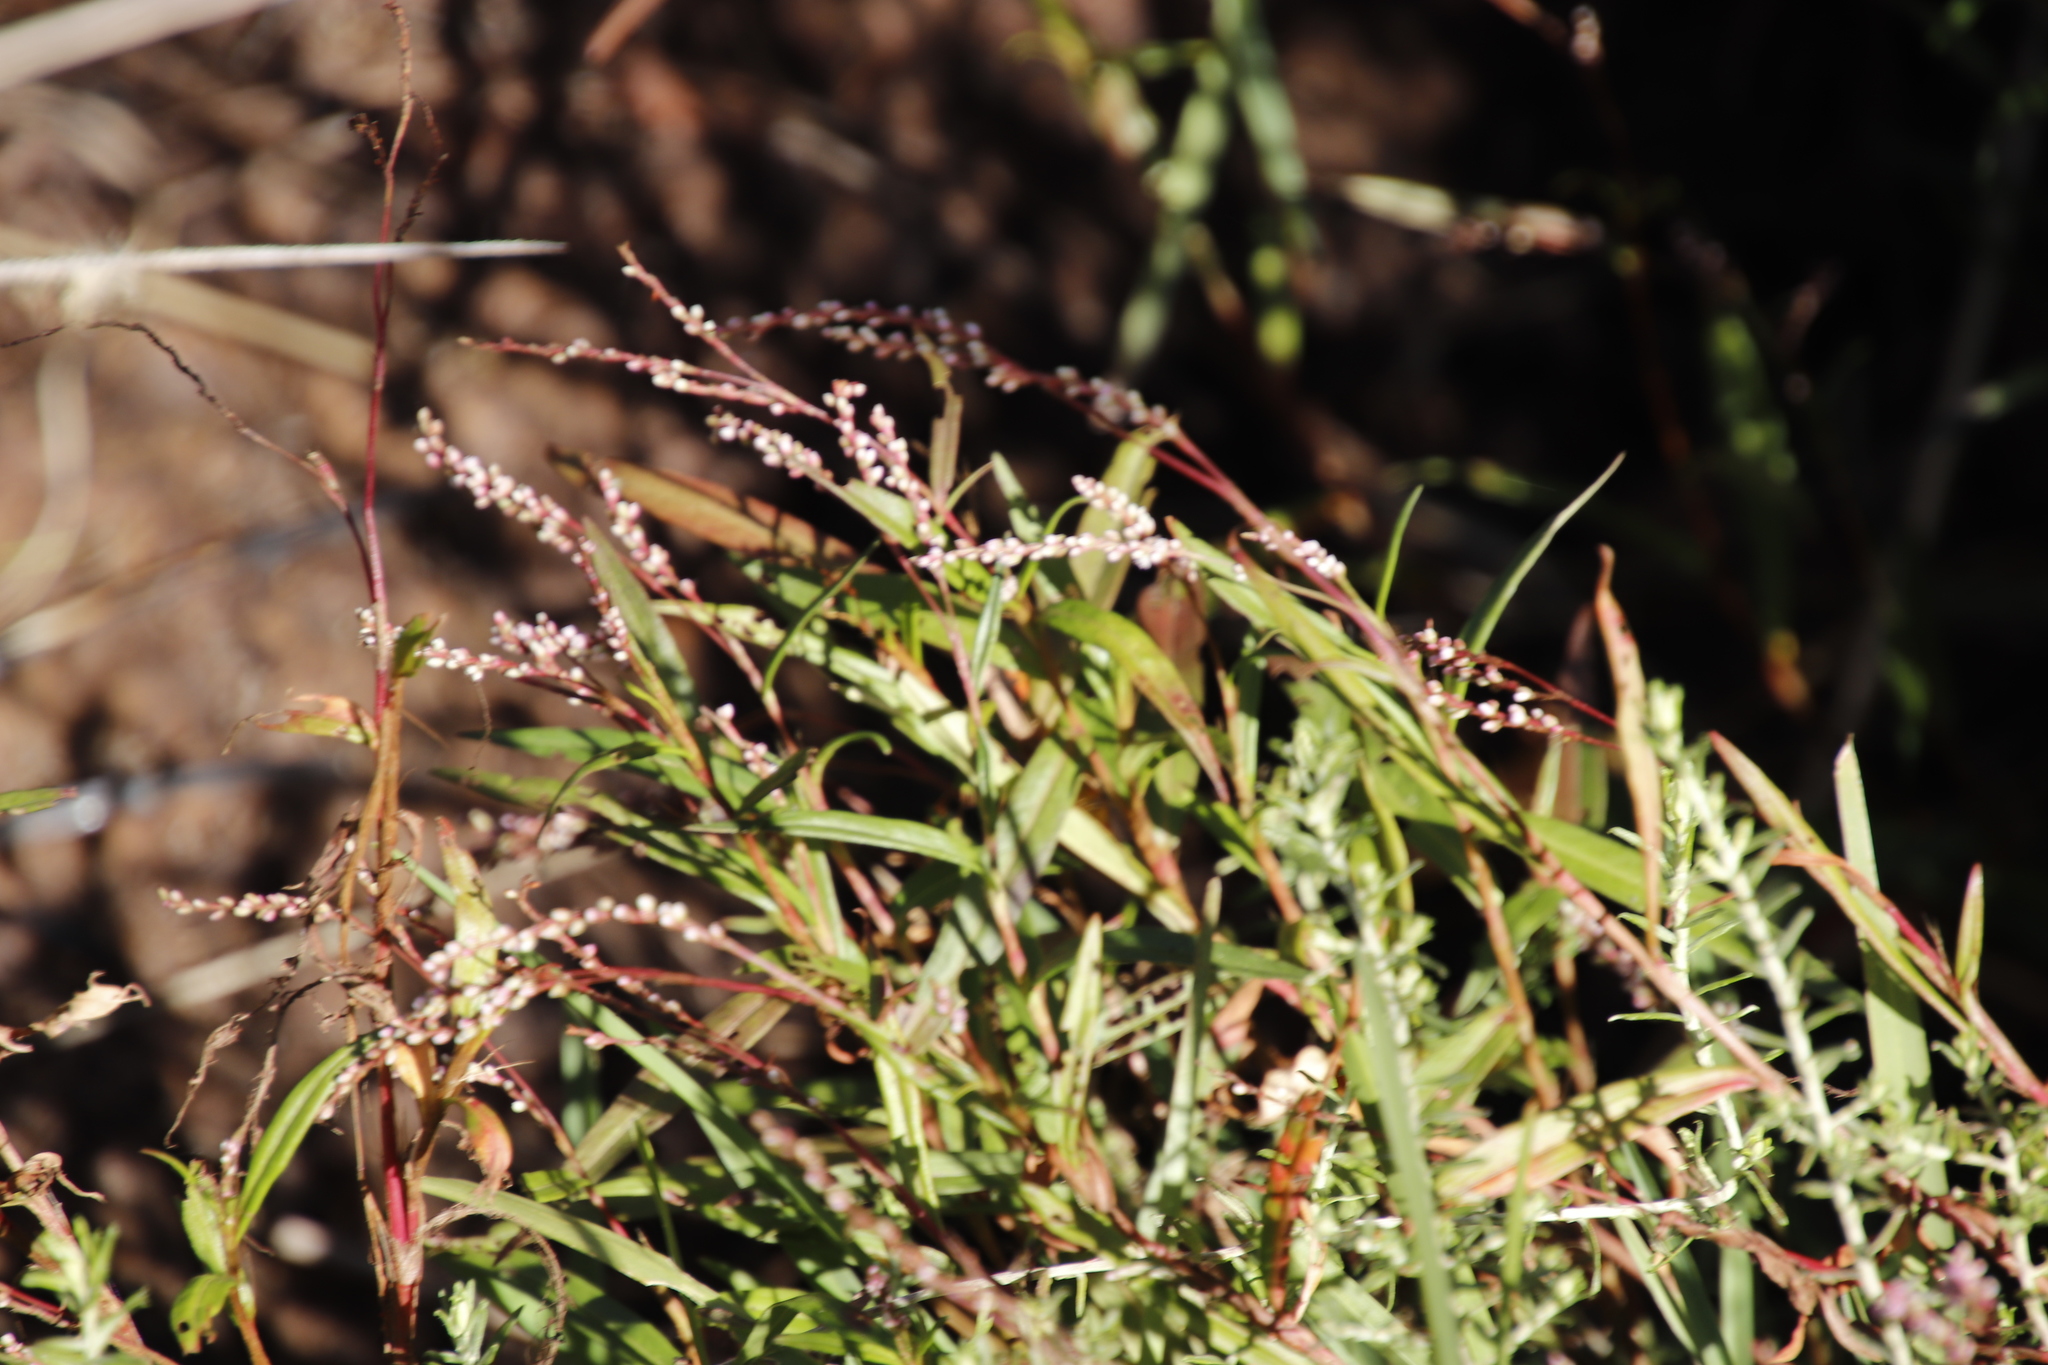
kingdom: Plantae
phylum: Tracheophyta
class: Magnoliopsida
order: Caryophyllales
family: Polygonaceae
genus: Persicaria
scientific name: Persicaria decipiens
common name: Willow-weed
